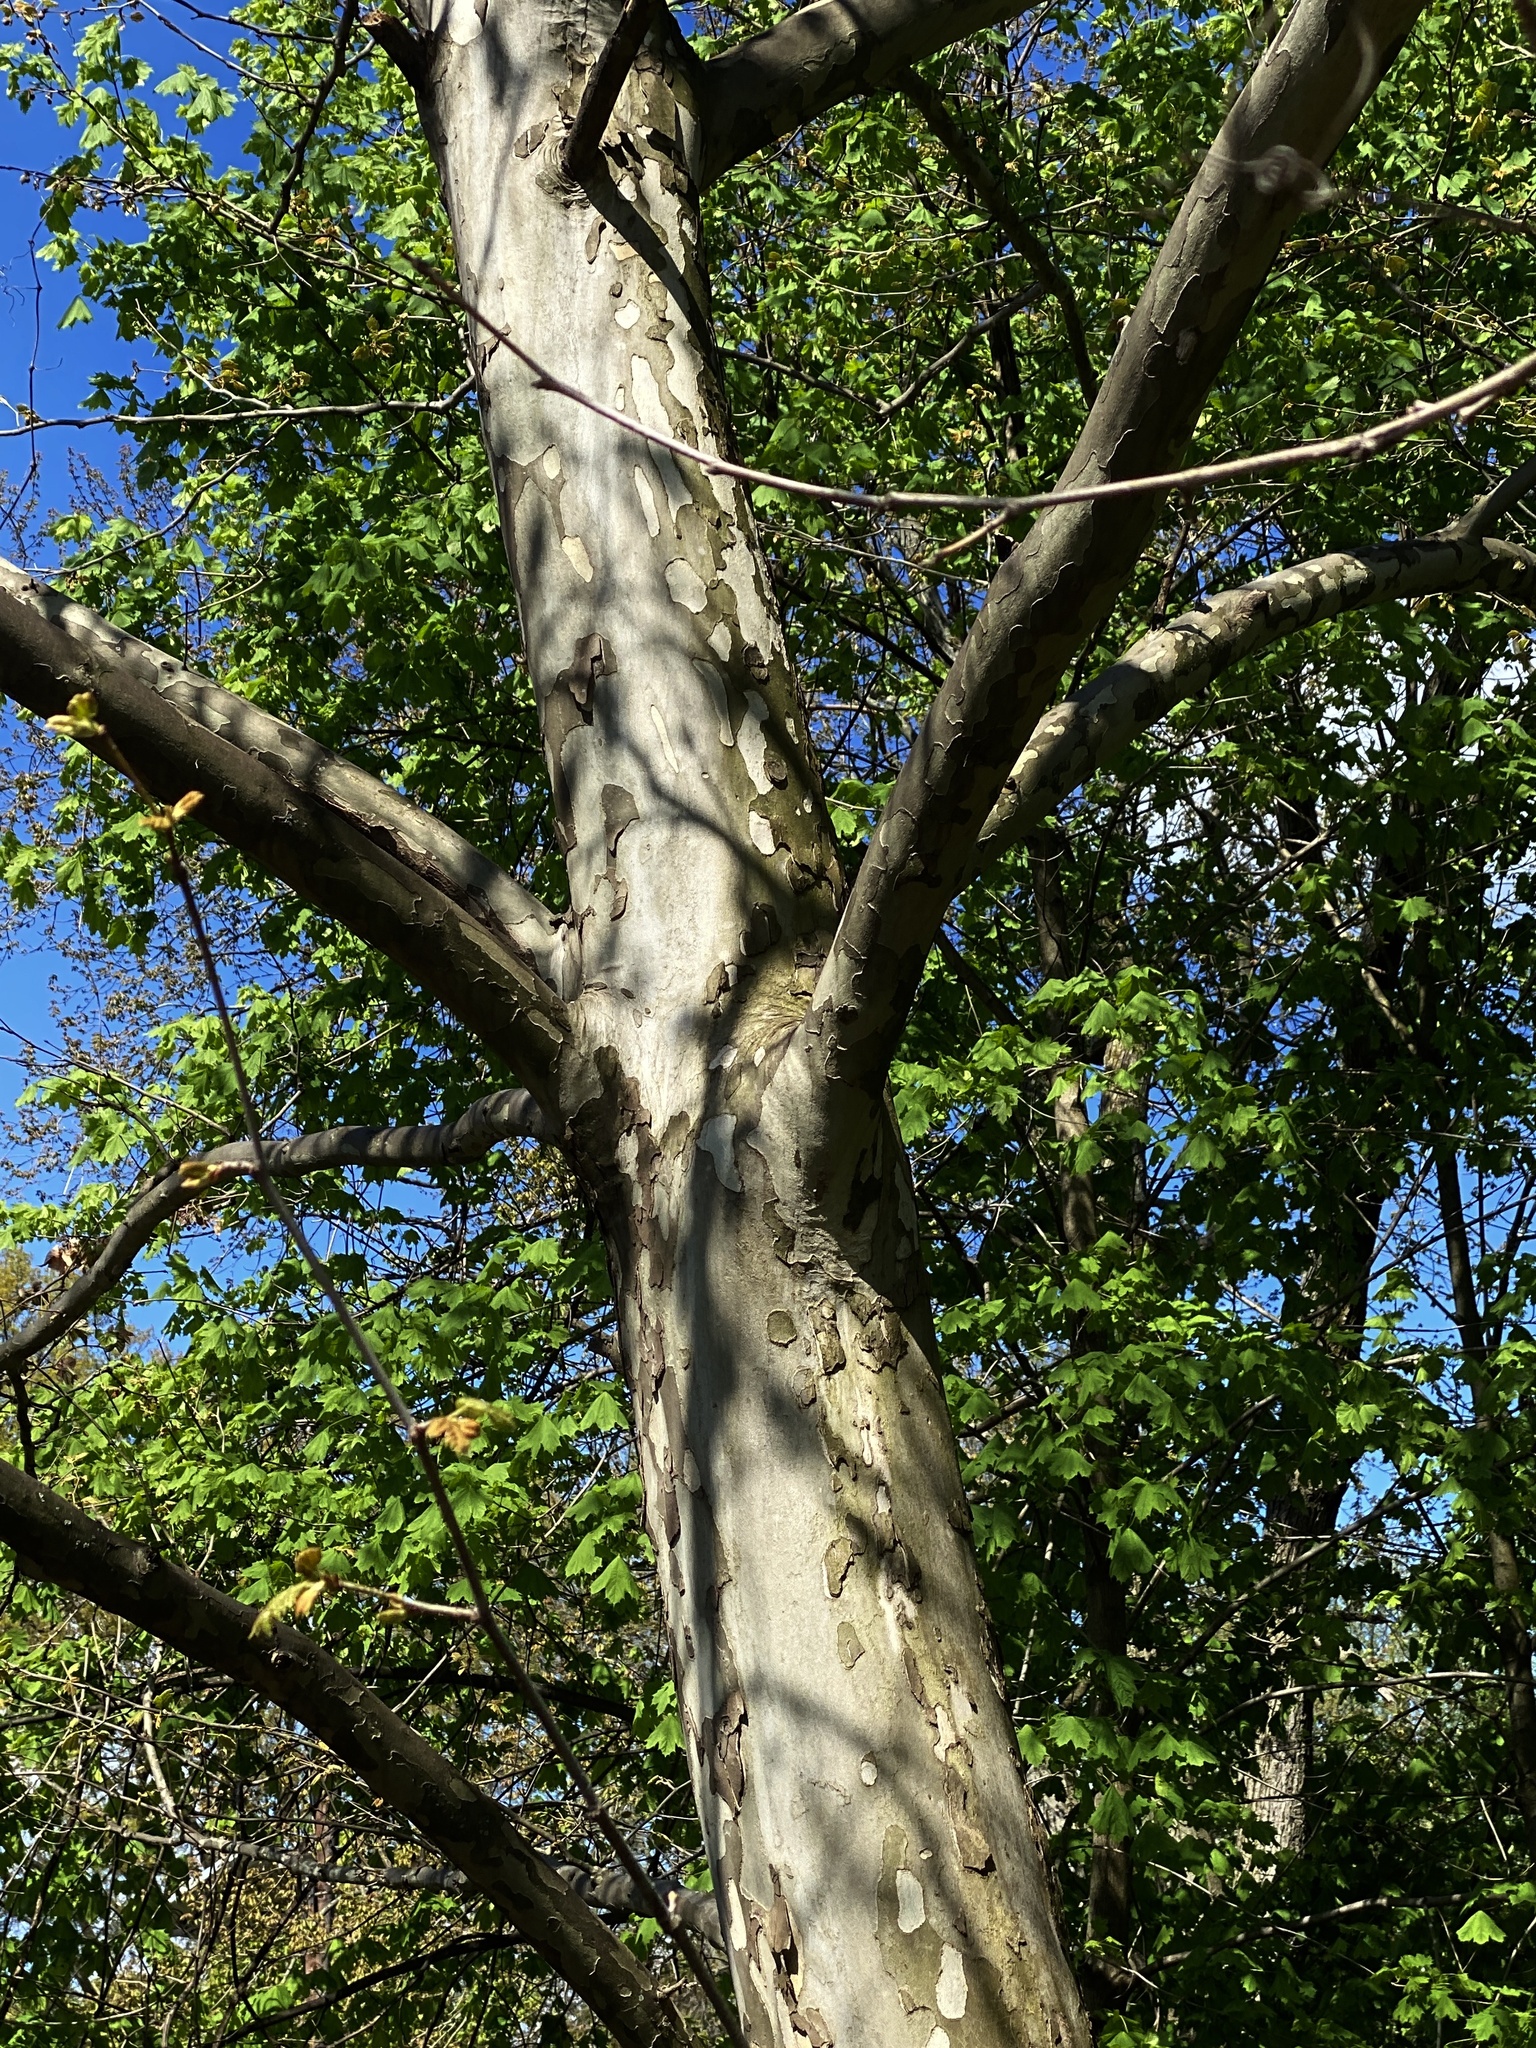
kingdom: Plantae
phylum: Tracheophyta
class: Magnoliopsida
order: Proteales
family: Platanaceae
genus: Platanus
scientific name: Platanus occidentalis
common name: American sycamore
